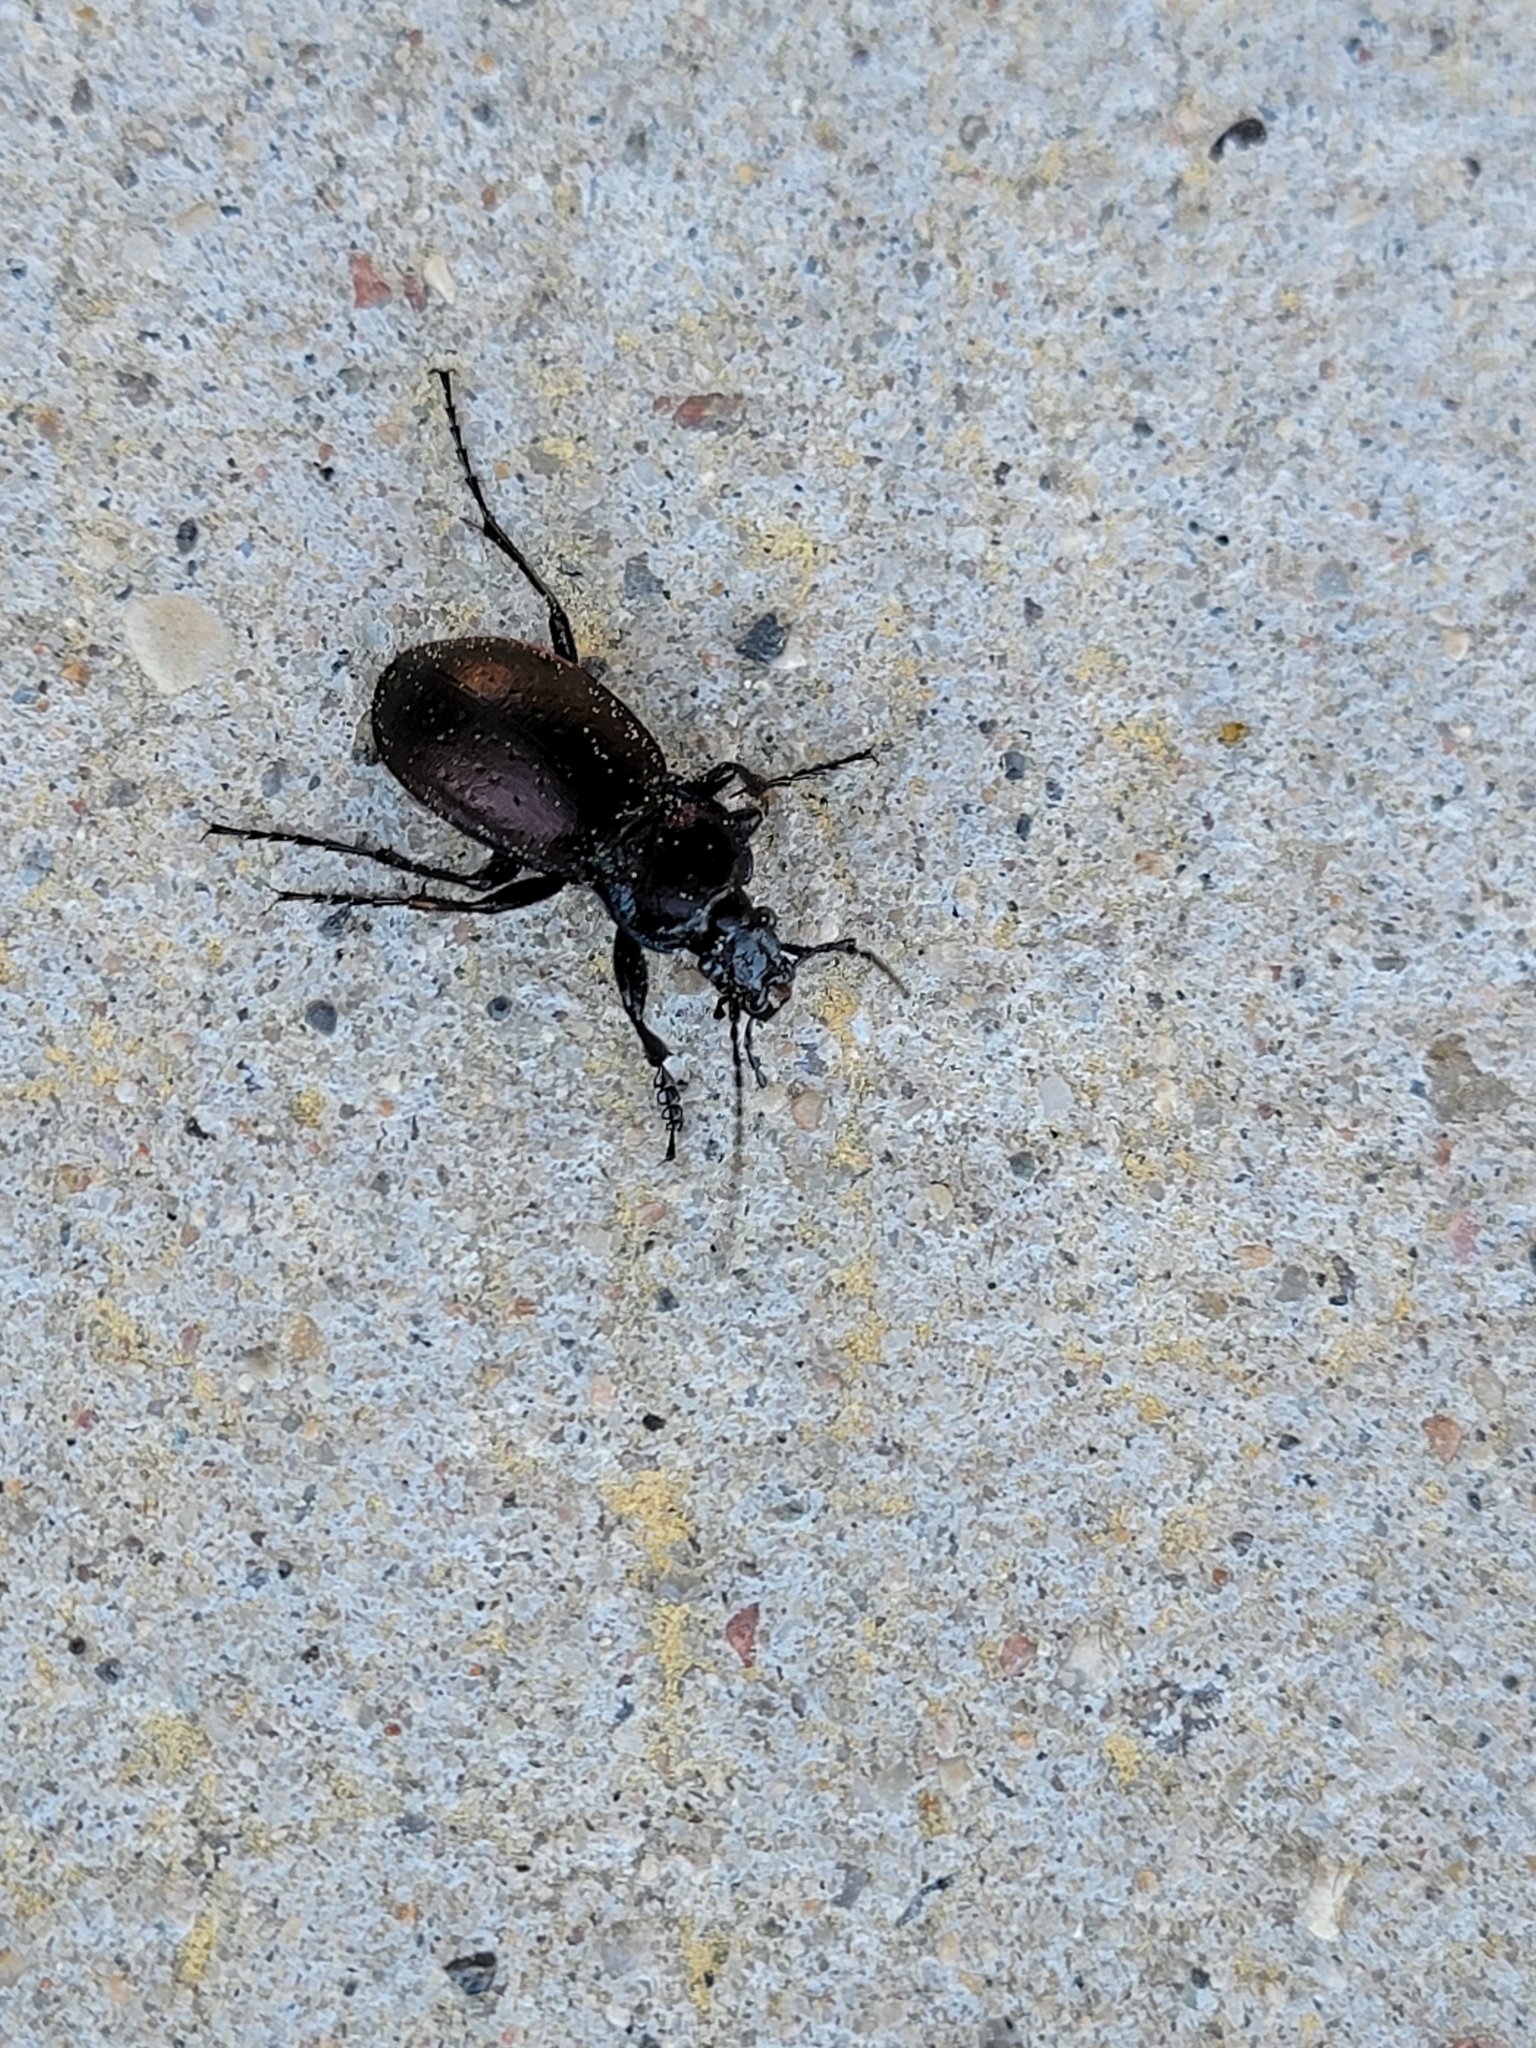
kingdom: Animalia
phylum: Arthropoda
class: Insecta
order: Coleoptera
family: Carabidae
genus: Carabus
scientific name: Carabus nemoralis
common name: European ground beetle
